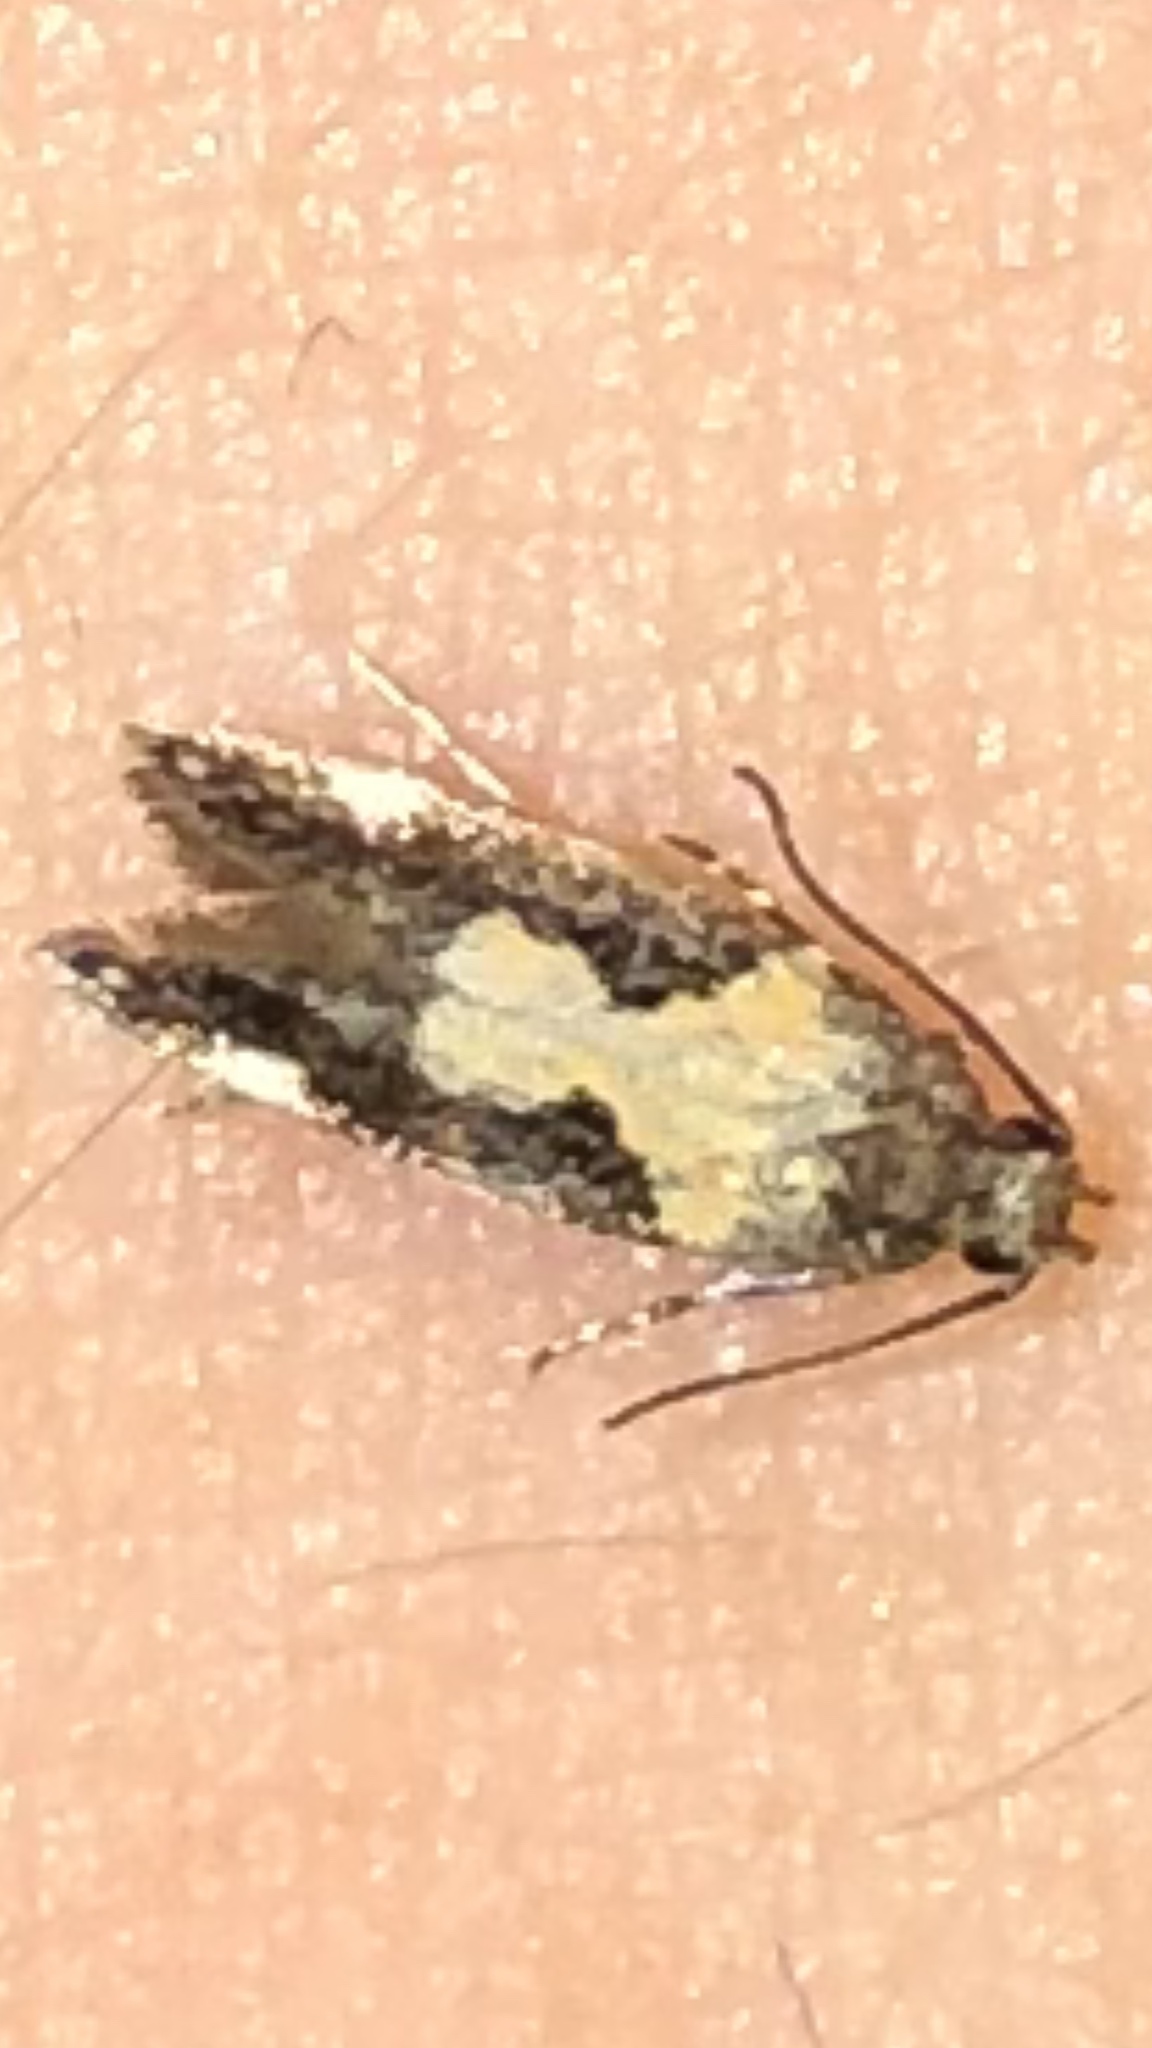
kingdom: Animalia
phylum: Arthropoda
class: Insecta
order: Lepidoptera
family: Gelechiidae
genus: Stegasta
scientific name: Stegasta bosqueella
